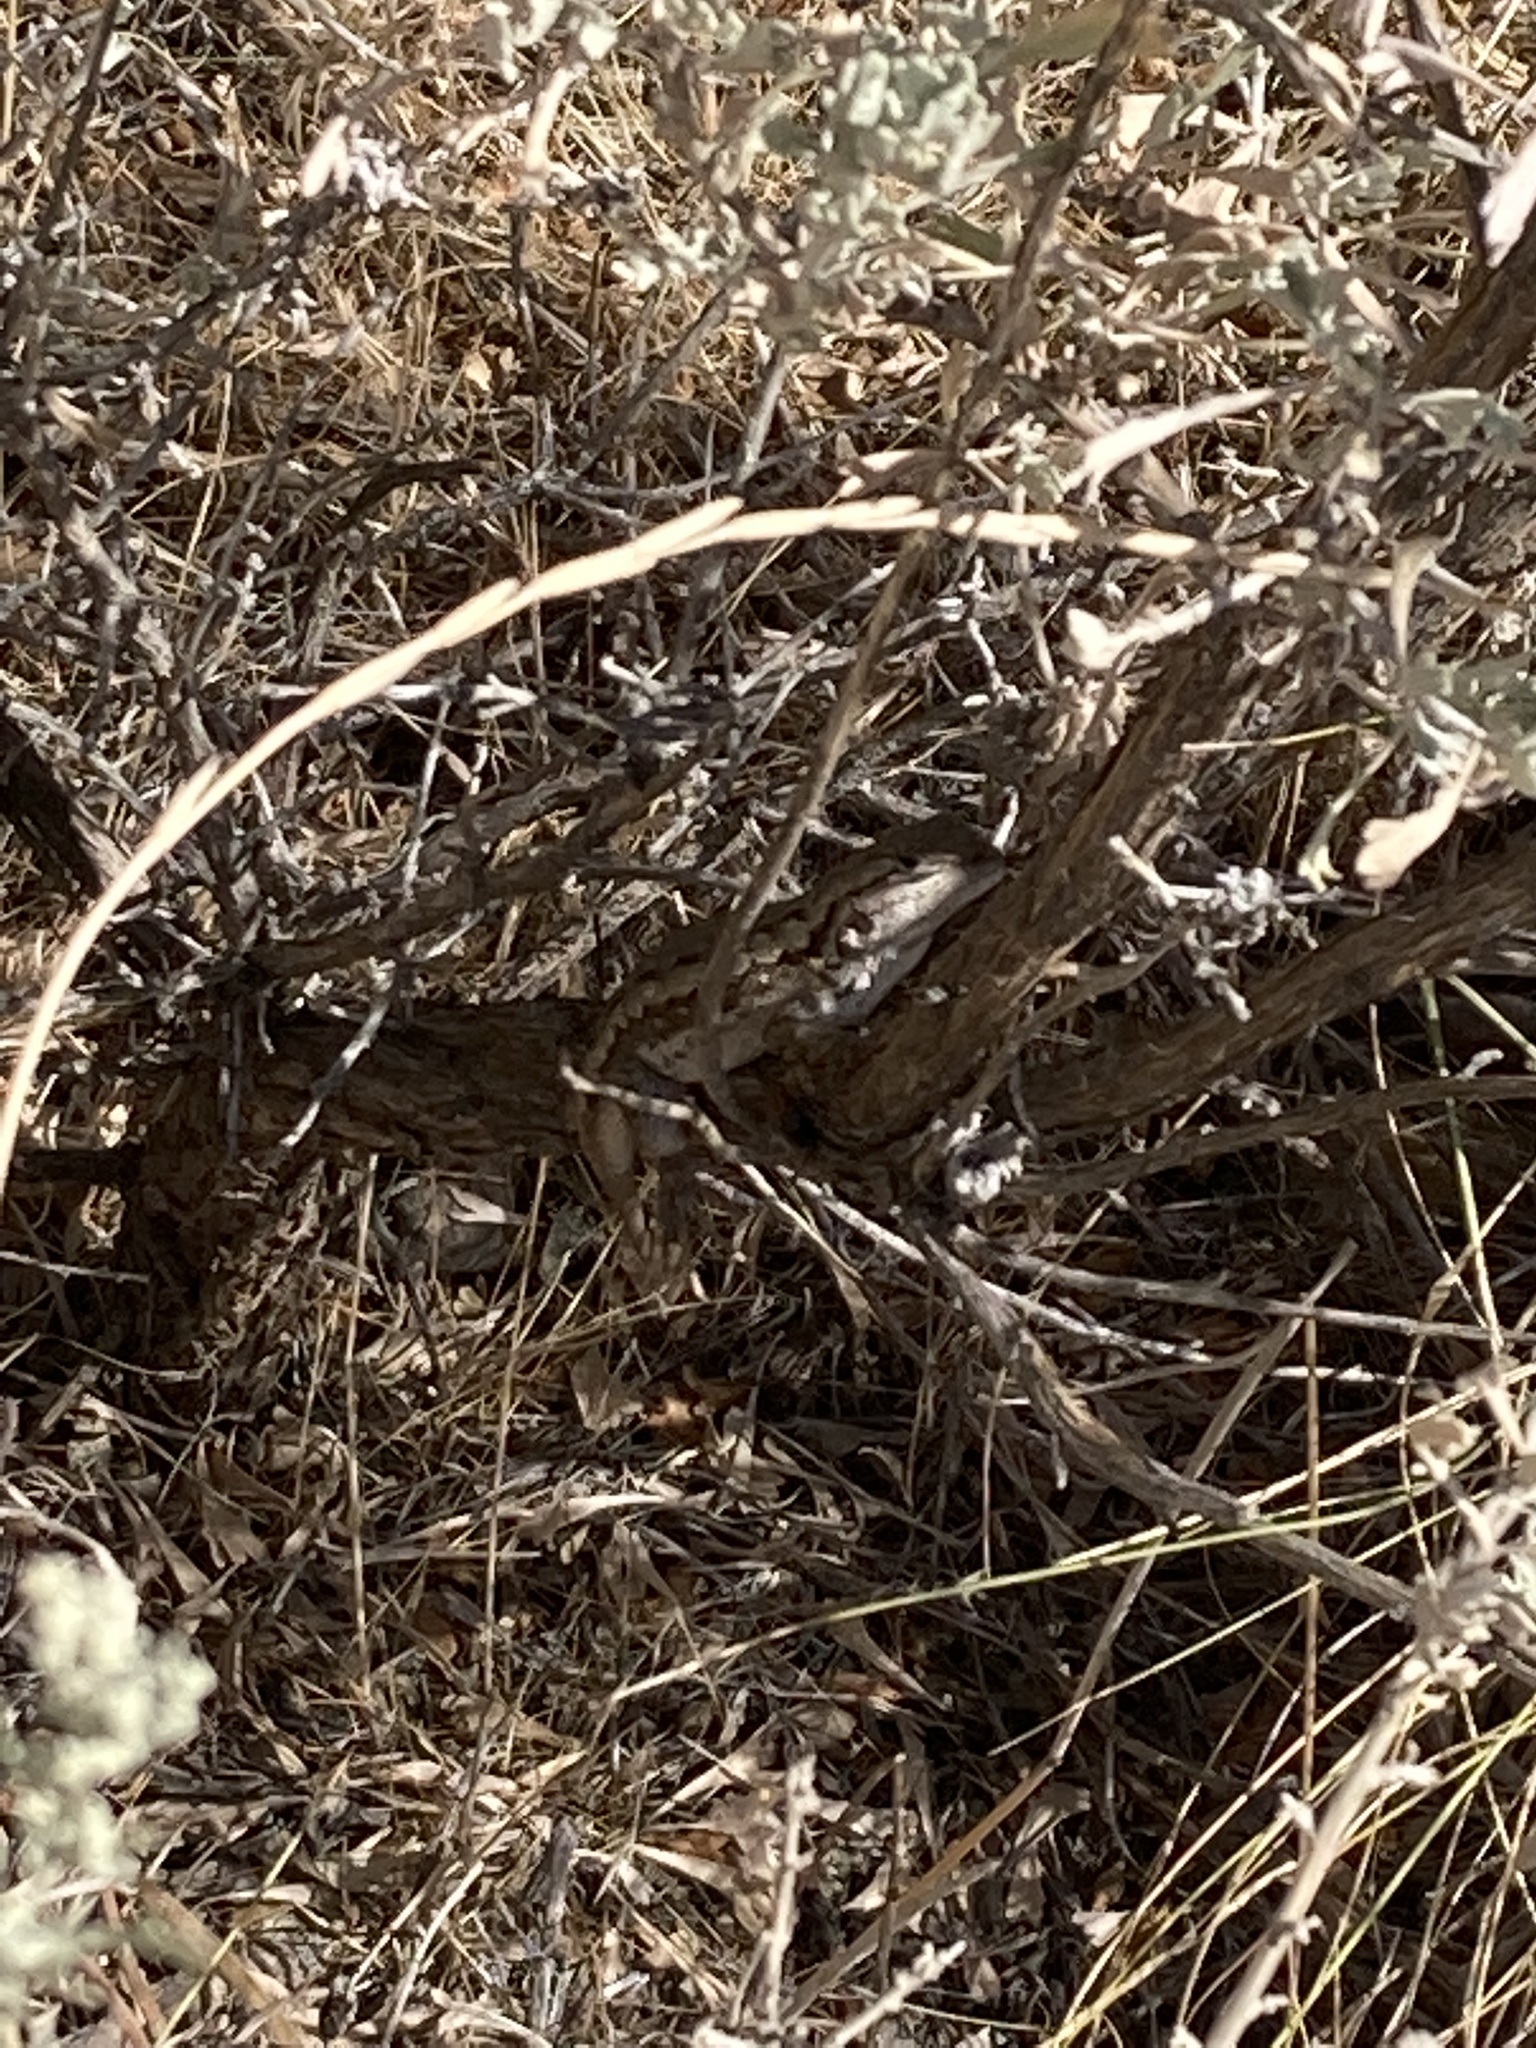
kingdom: Animalia
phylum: Chordata
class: Squamata
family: Phrynosomatidae
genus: Sceloporus
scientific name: Sceloporus occidentalis
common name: Western fence lizard
